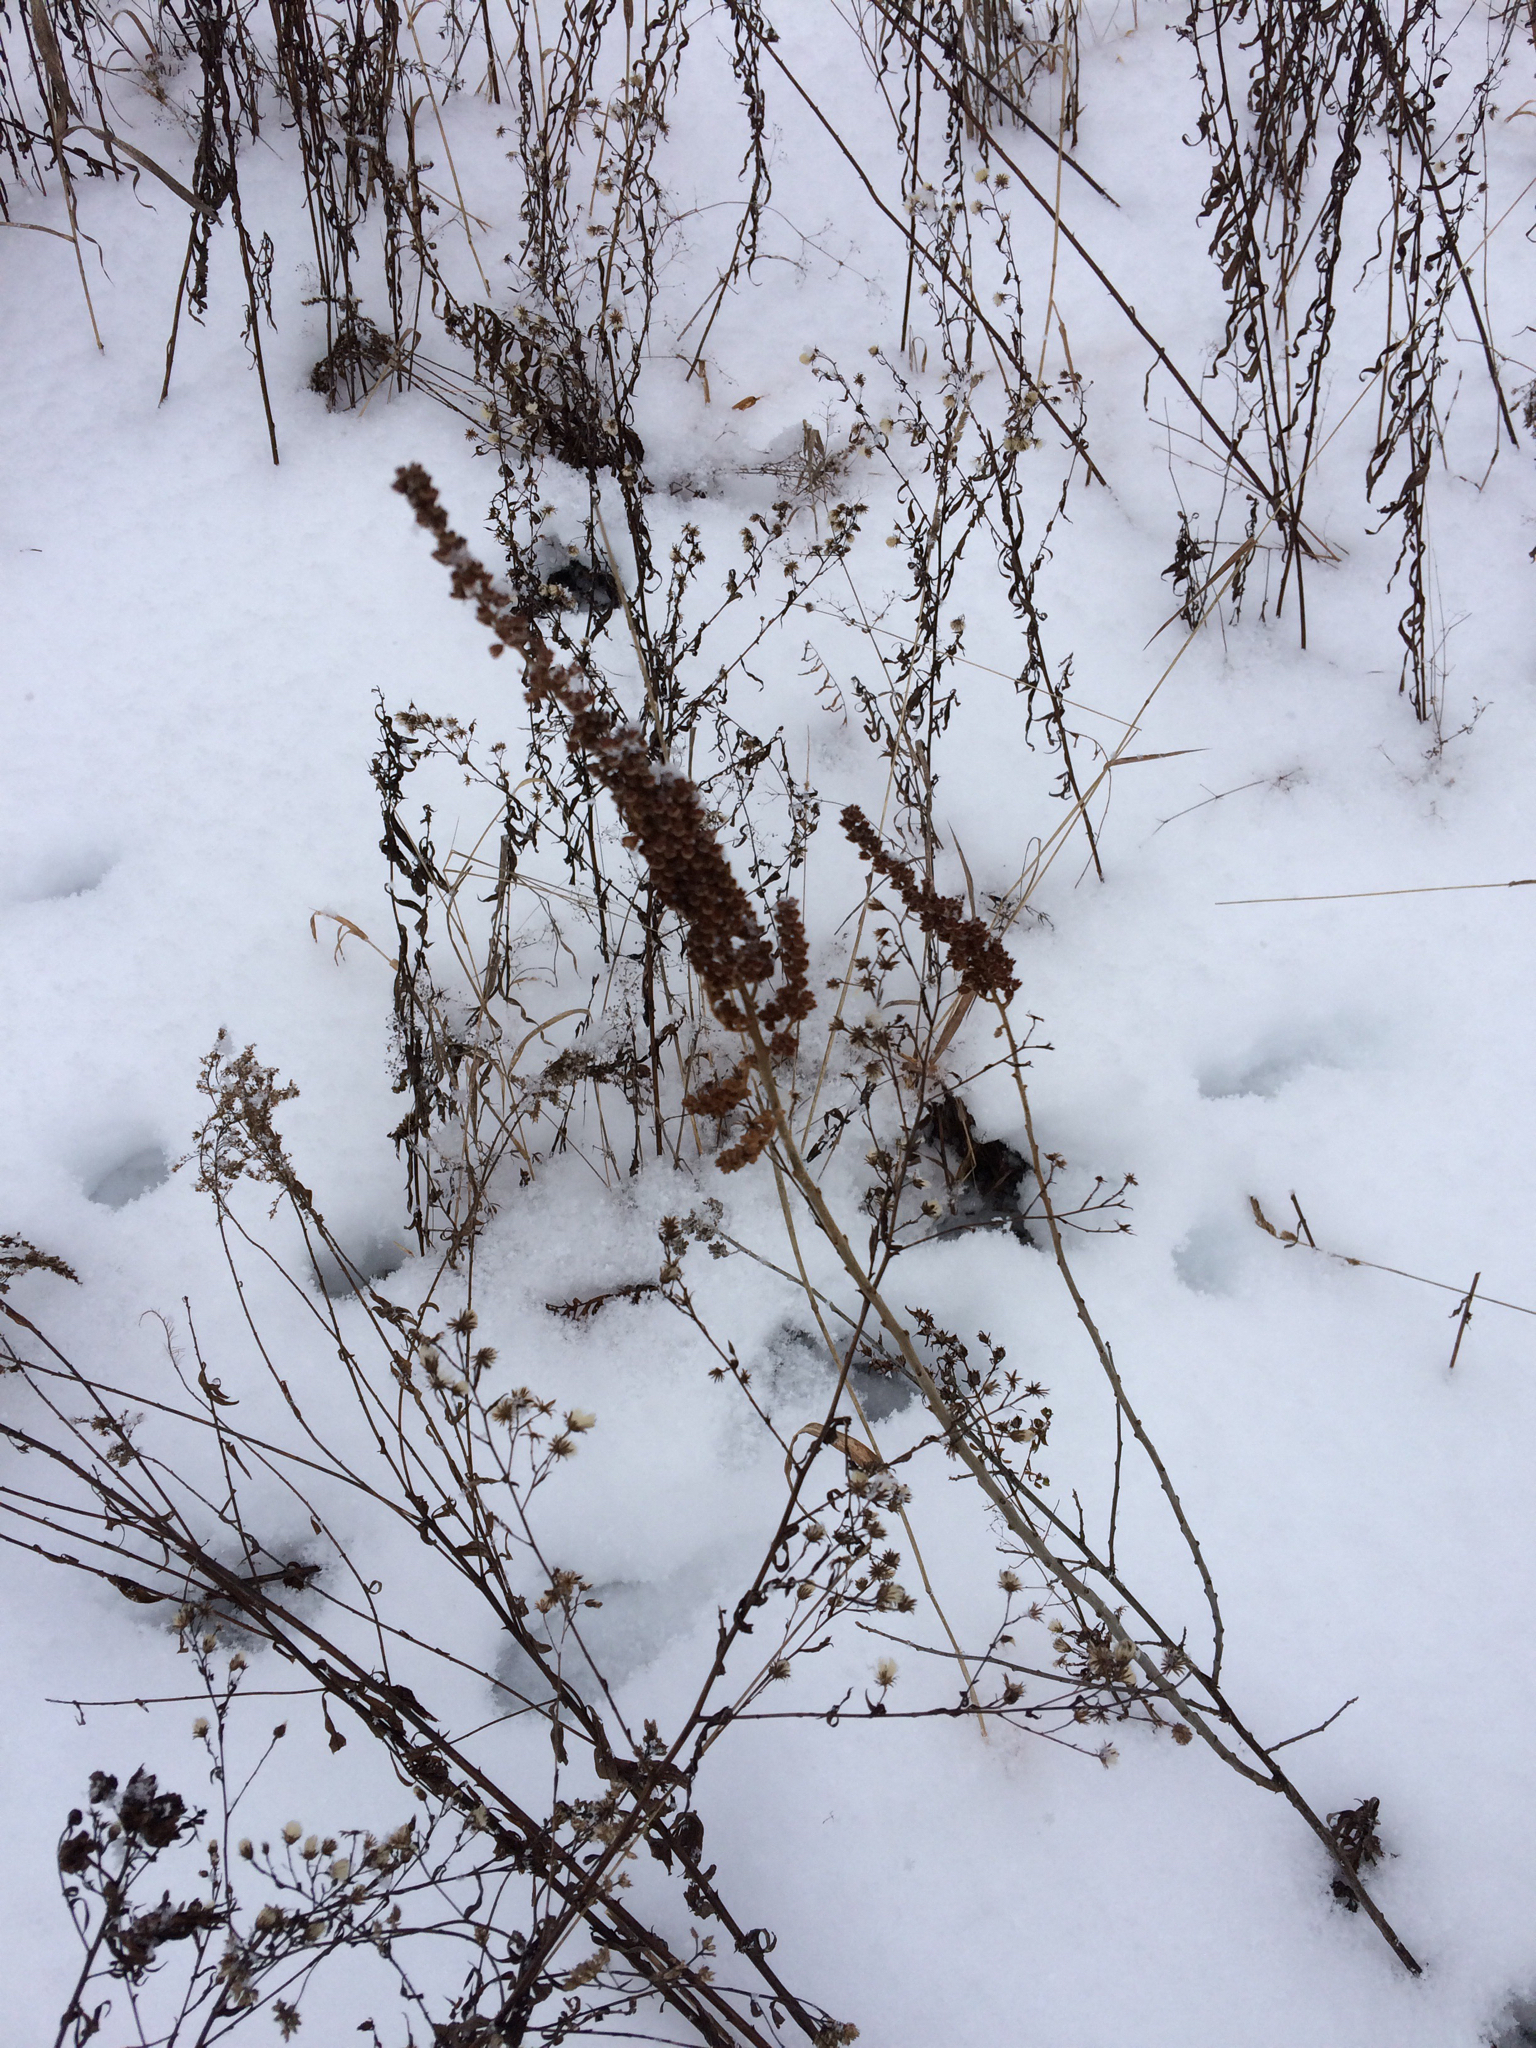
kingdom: Plantae
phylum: Tracheophyta
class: Magnoliopsida
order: Rosales
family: Rosaceae
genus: Spiraea
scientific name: Spiraea tomentosa
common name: Hardhack
